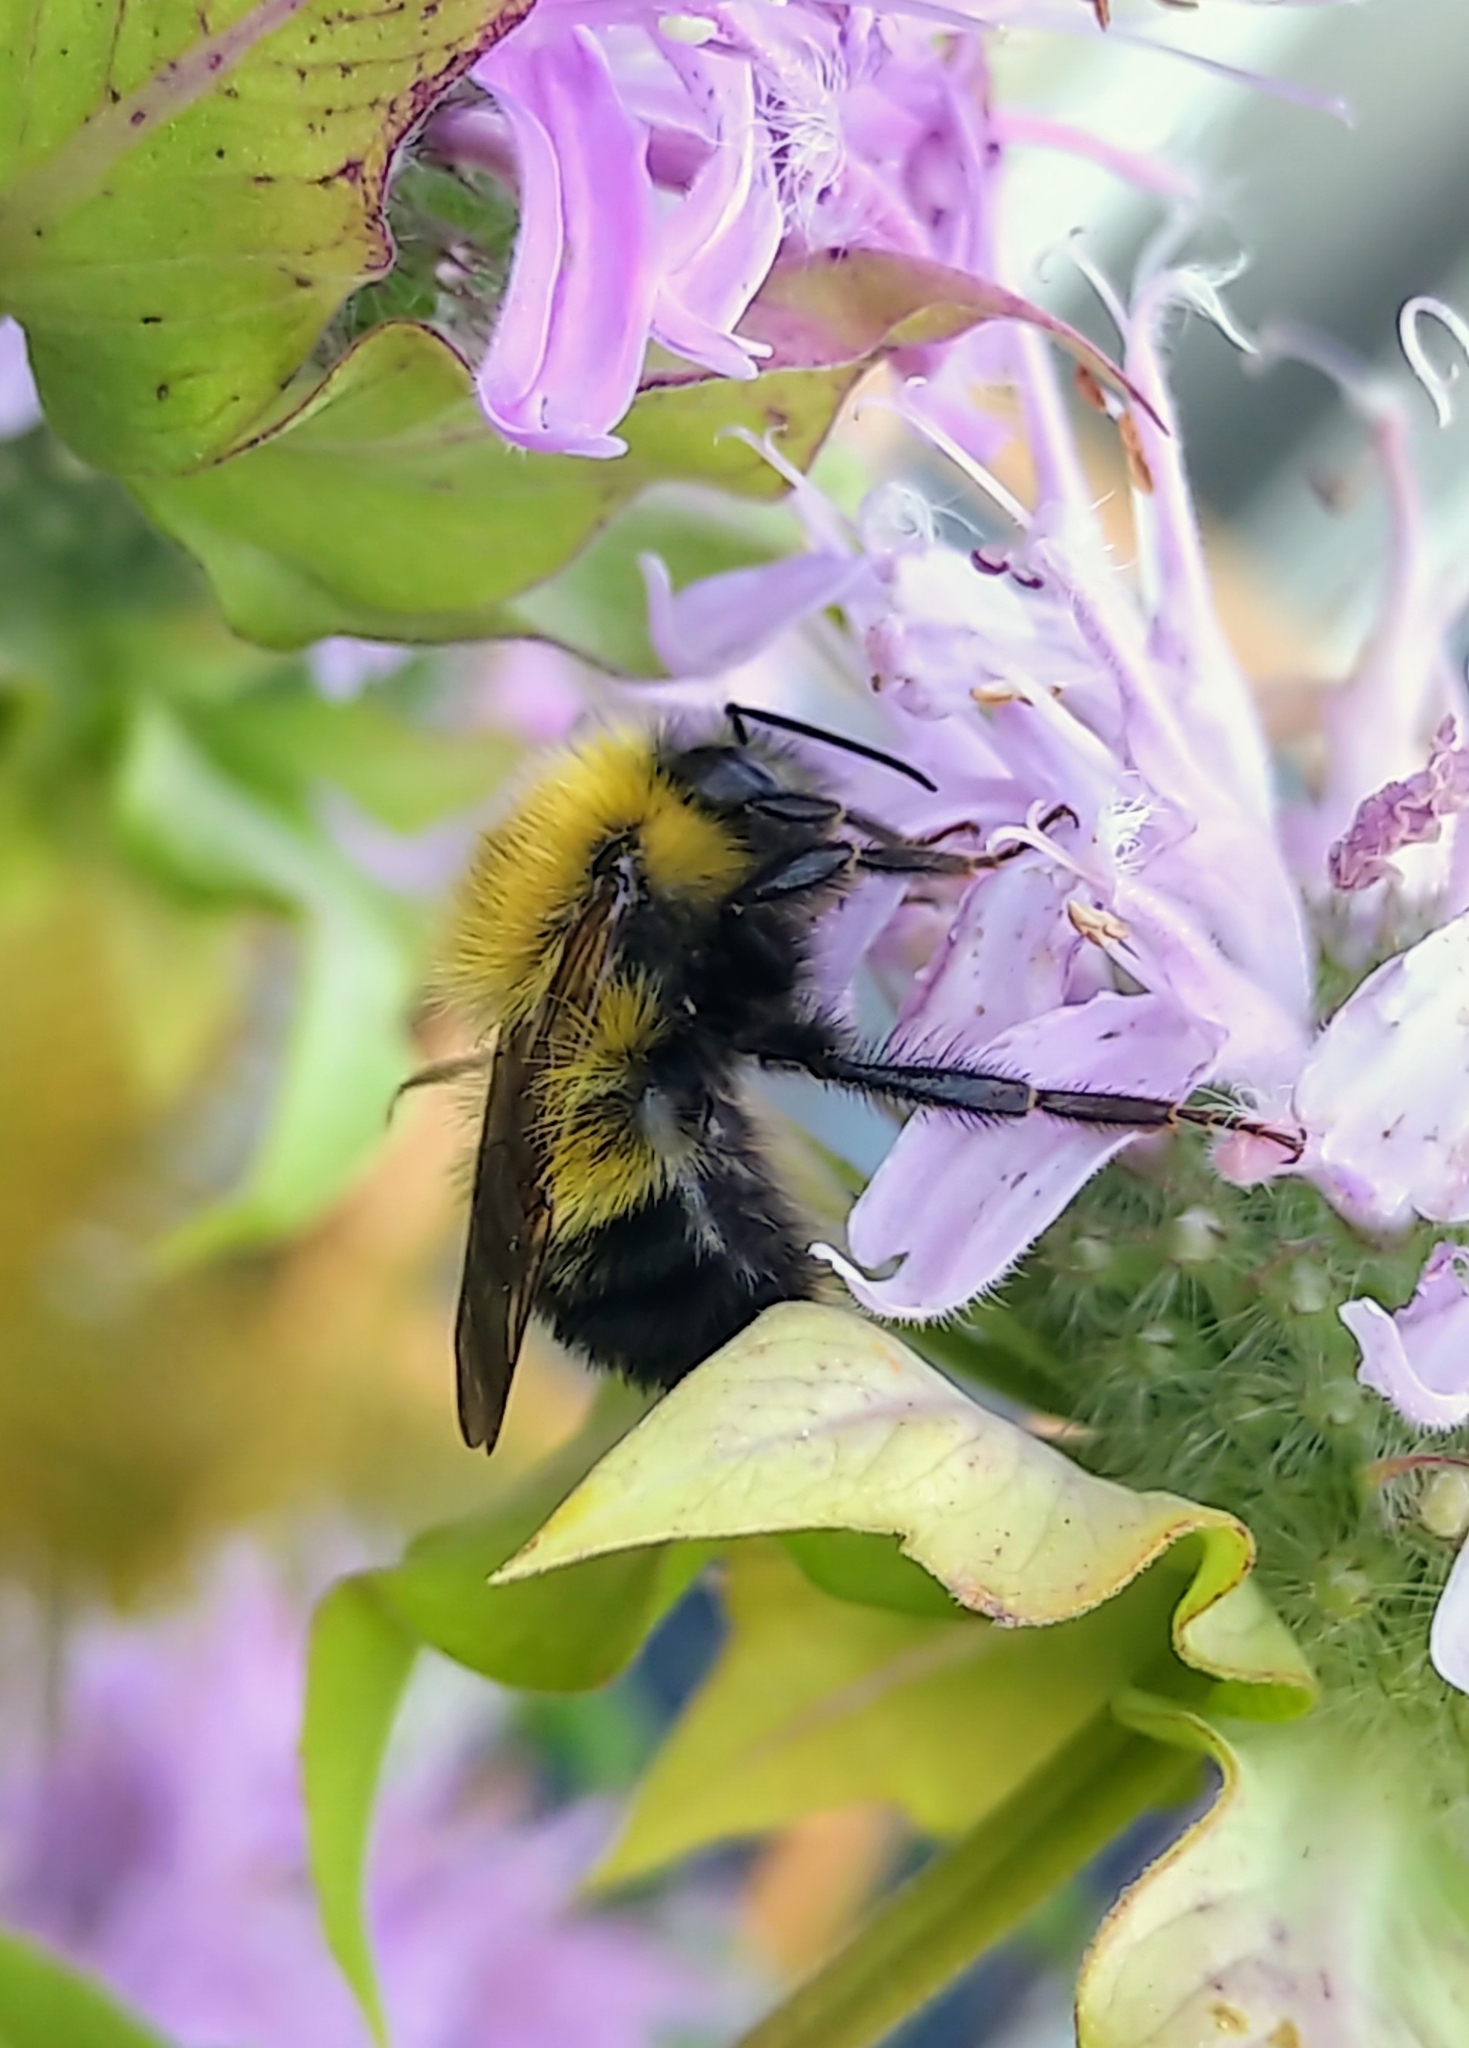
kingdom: Animalia
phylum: Arthropoda
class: Insecta
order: Hymenoptera
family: Apidae
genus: Bombus
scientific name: Bombus perplexus
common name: Confusing bumble bee
